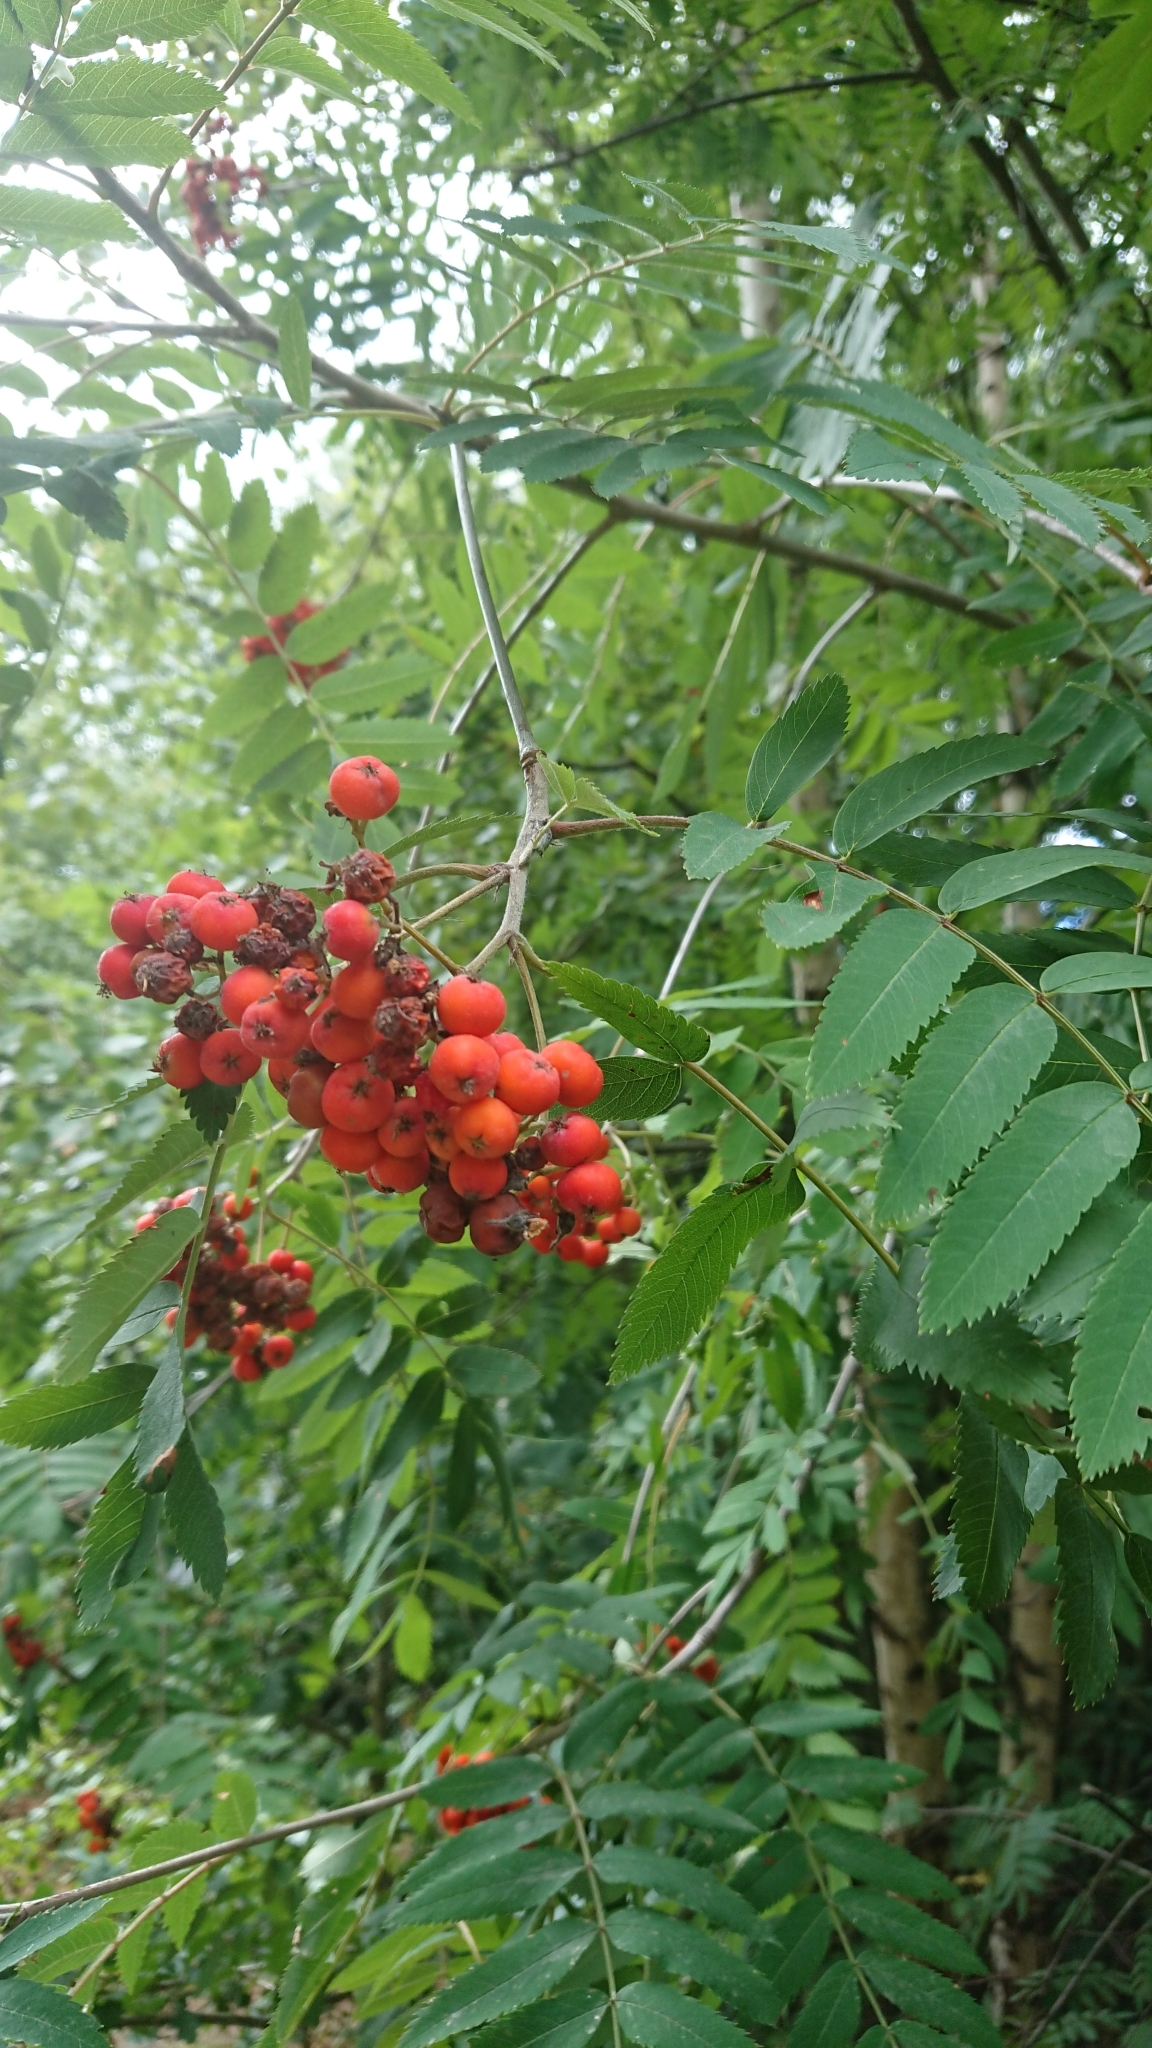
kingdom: Plantae
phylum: Tracheophyta
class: Magnoliopsida
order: Rosales
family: Rosaceae
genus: Sorbus
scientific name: Sorbus aucuparia
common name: Rowan
